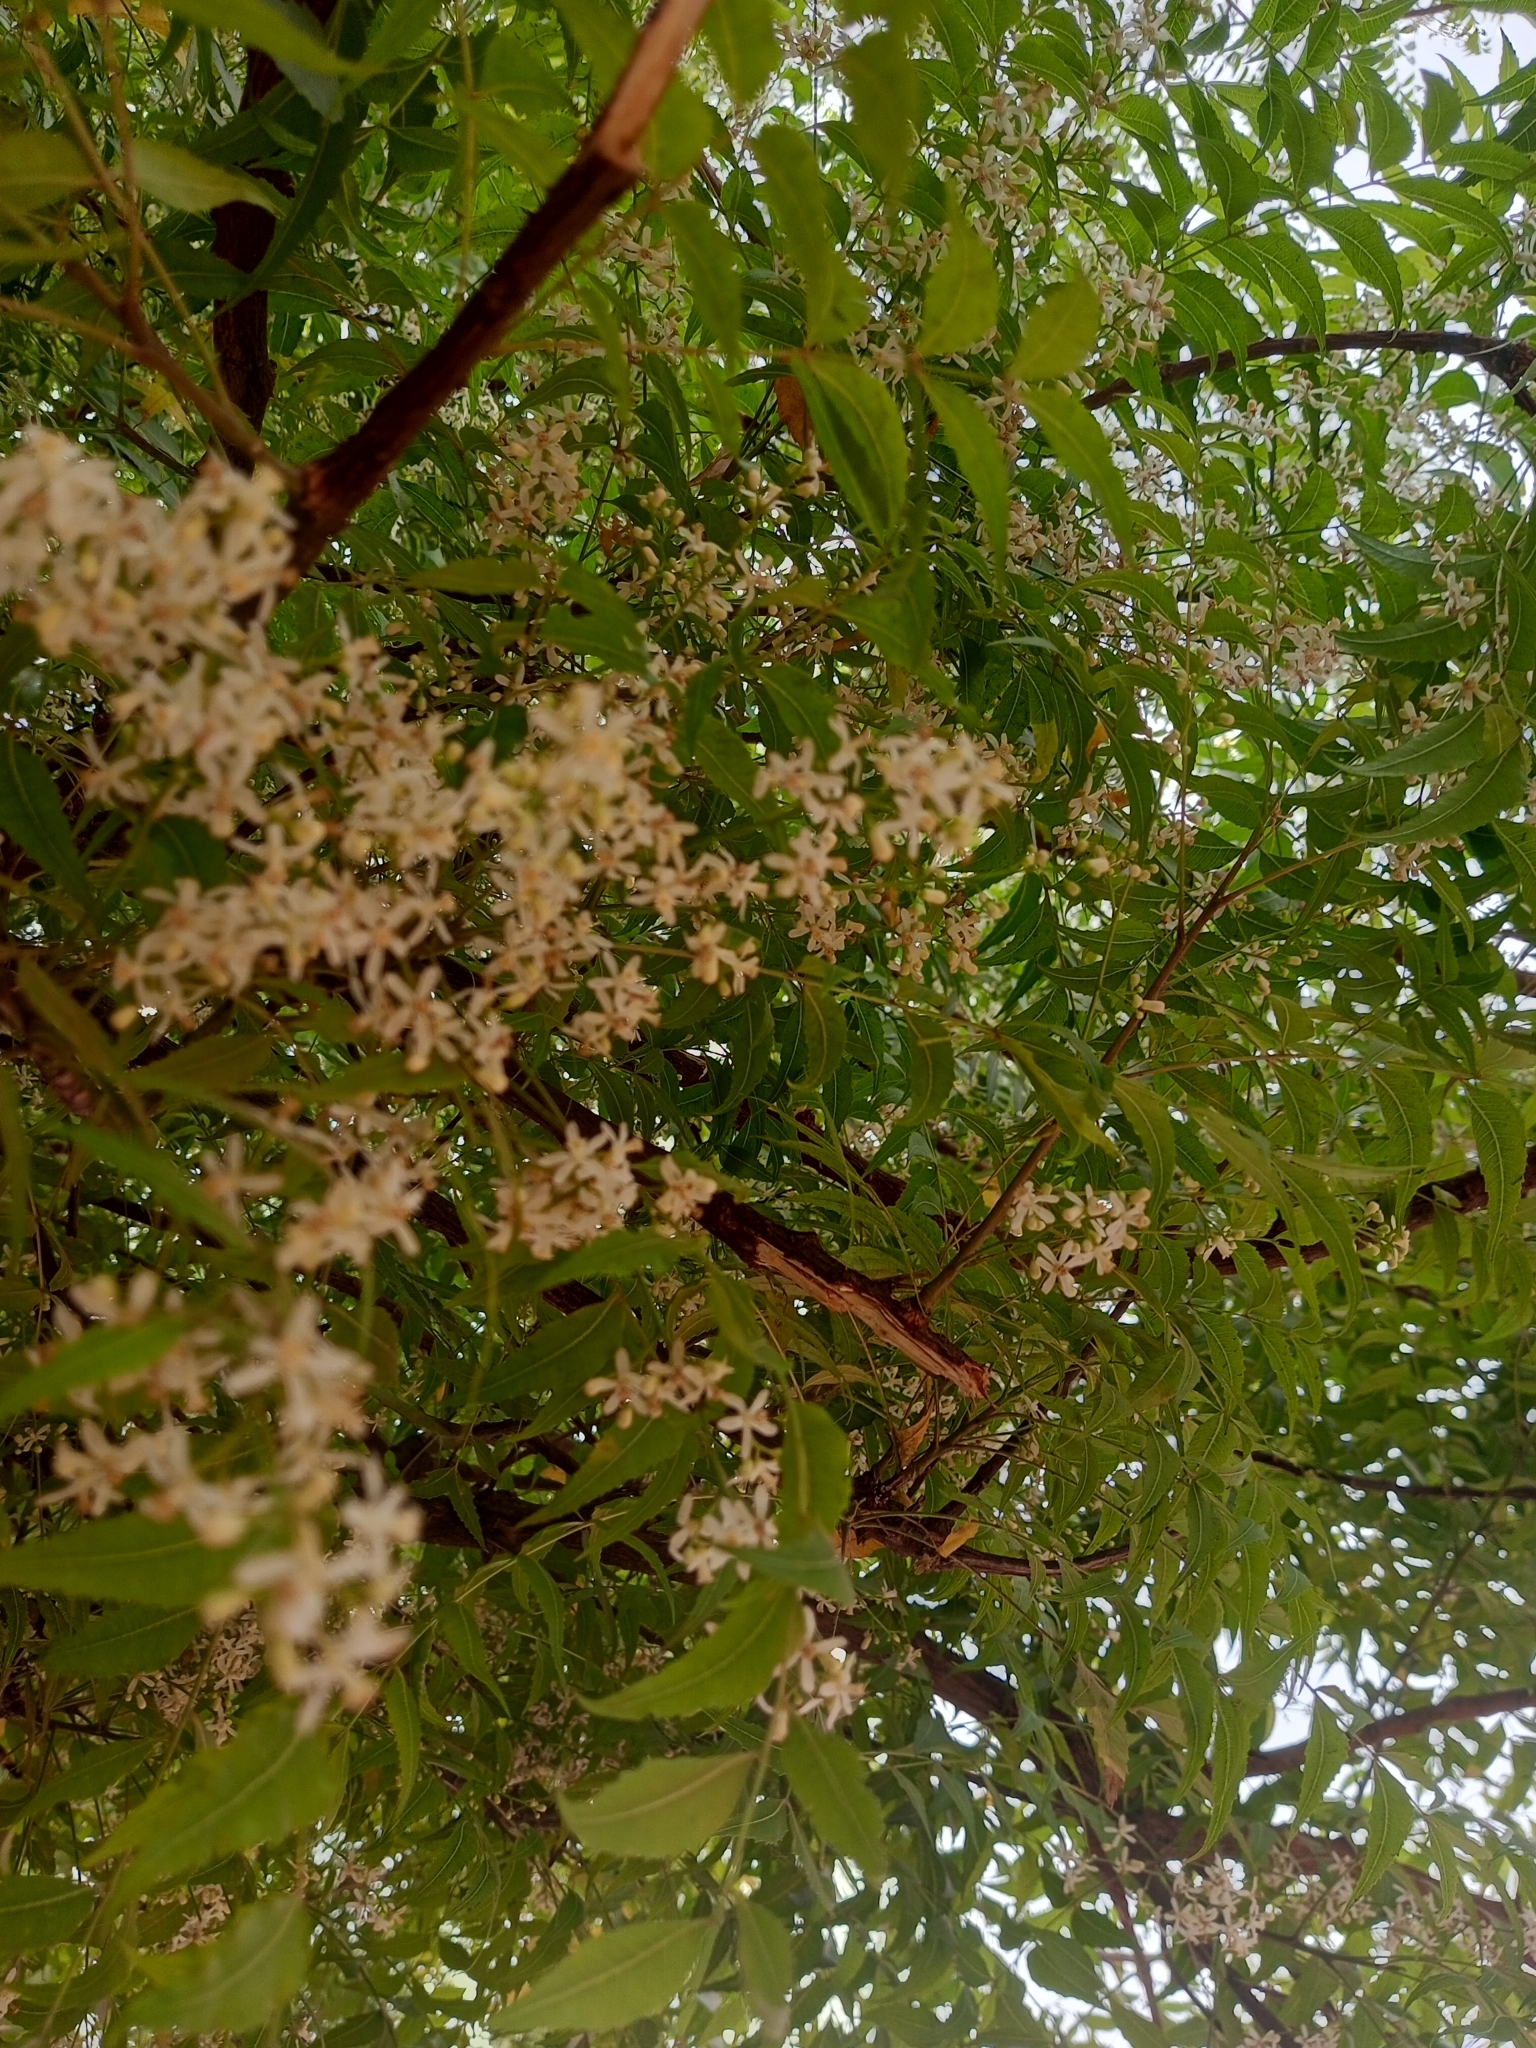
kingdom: Plantae
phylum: Tracheophyta
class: Magnoliopsida
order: Sapindales
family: Meliaceae
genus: Azadirachta
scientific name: Azadirachta indica
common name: Neem
